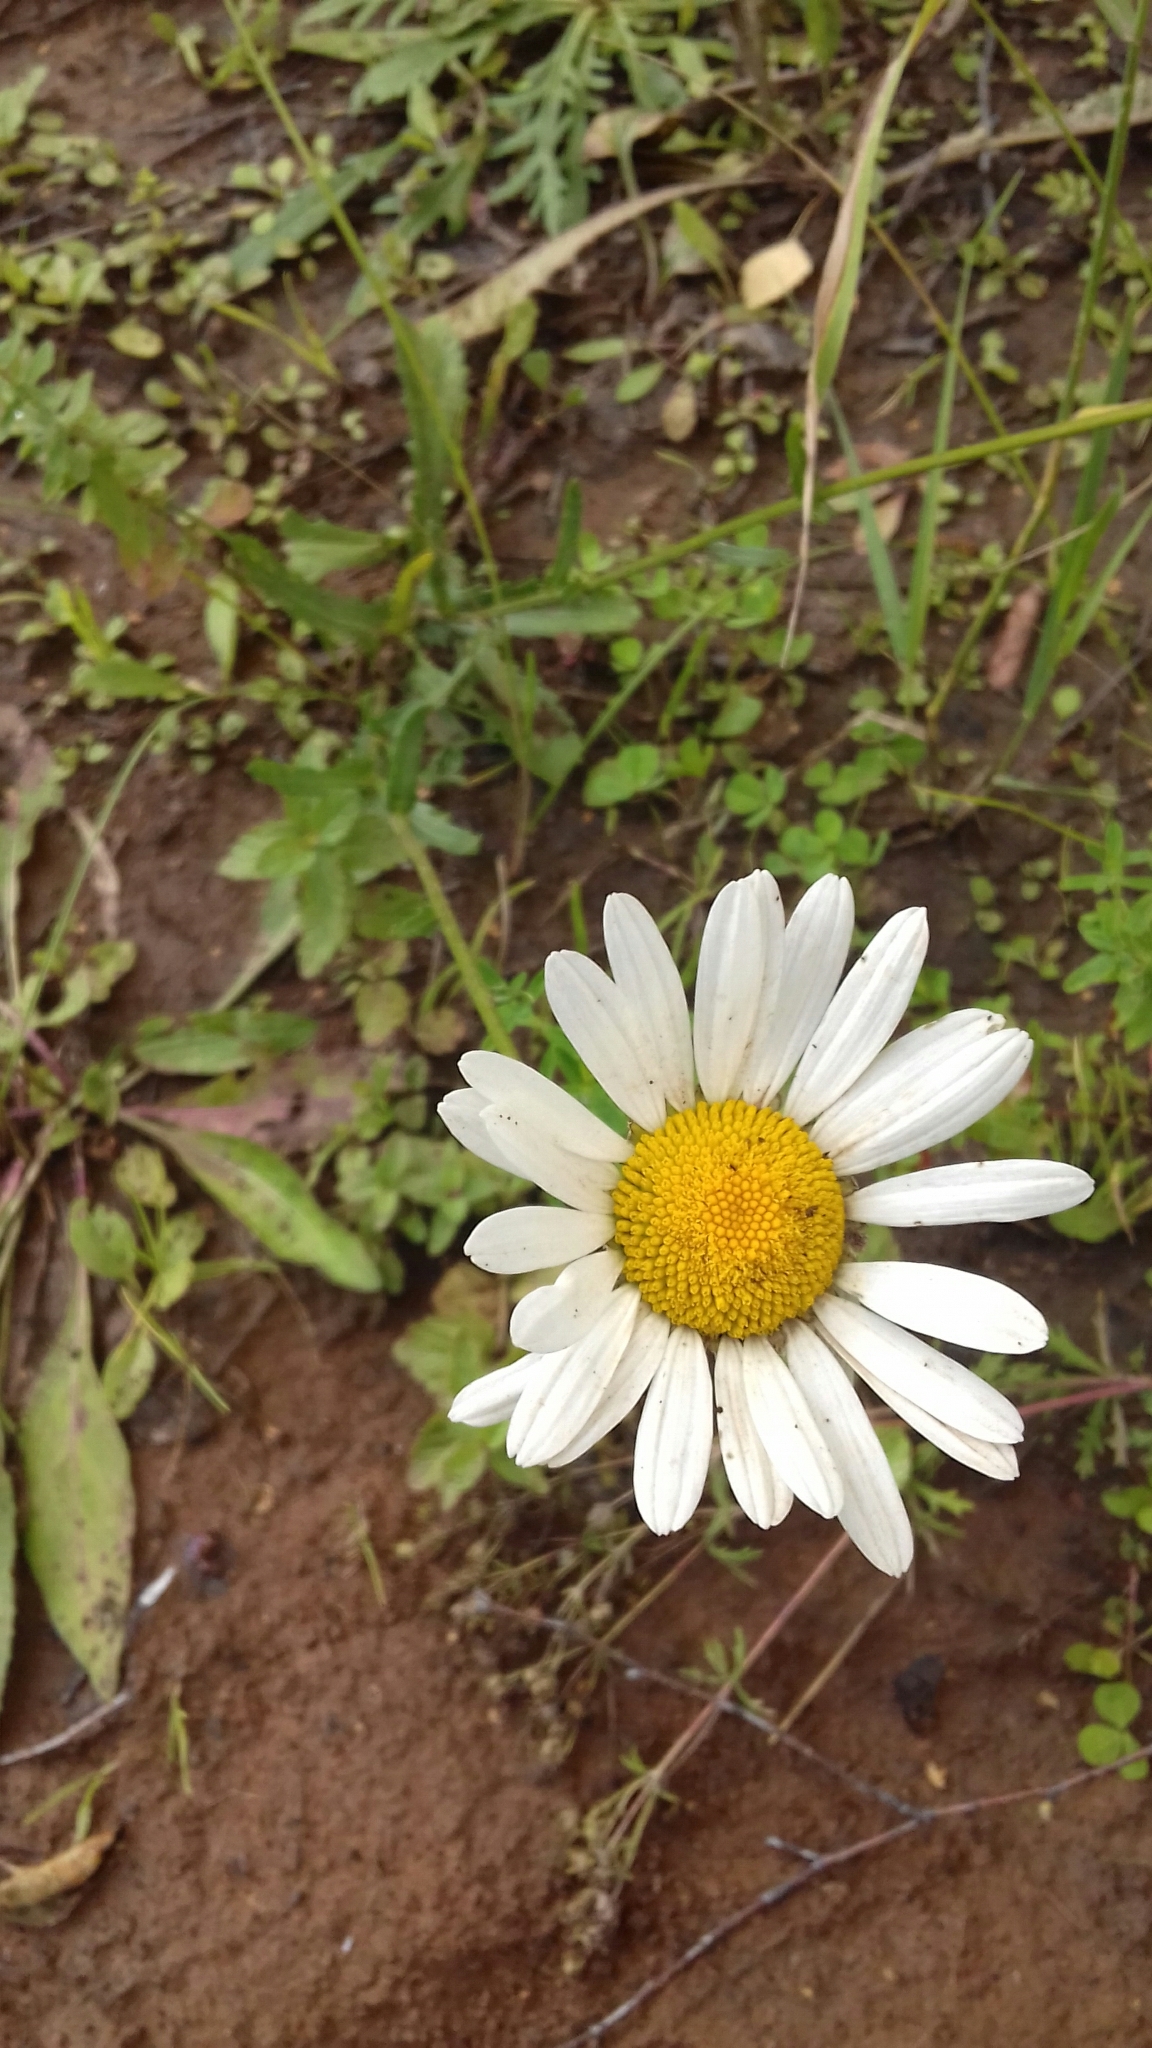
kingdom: Plantae
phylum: Tracheophyta
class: Magnoliopsida
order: Asterales
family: Asteraceae
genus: Leucanthemum
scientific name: Leucanthemum vulgare
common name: Oxeye daisy
